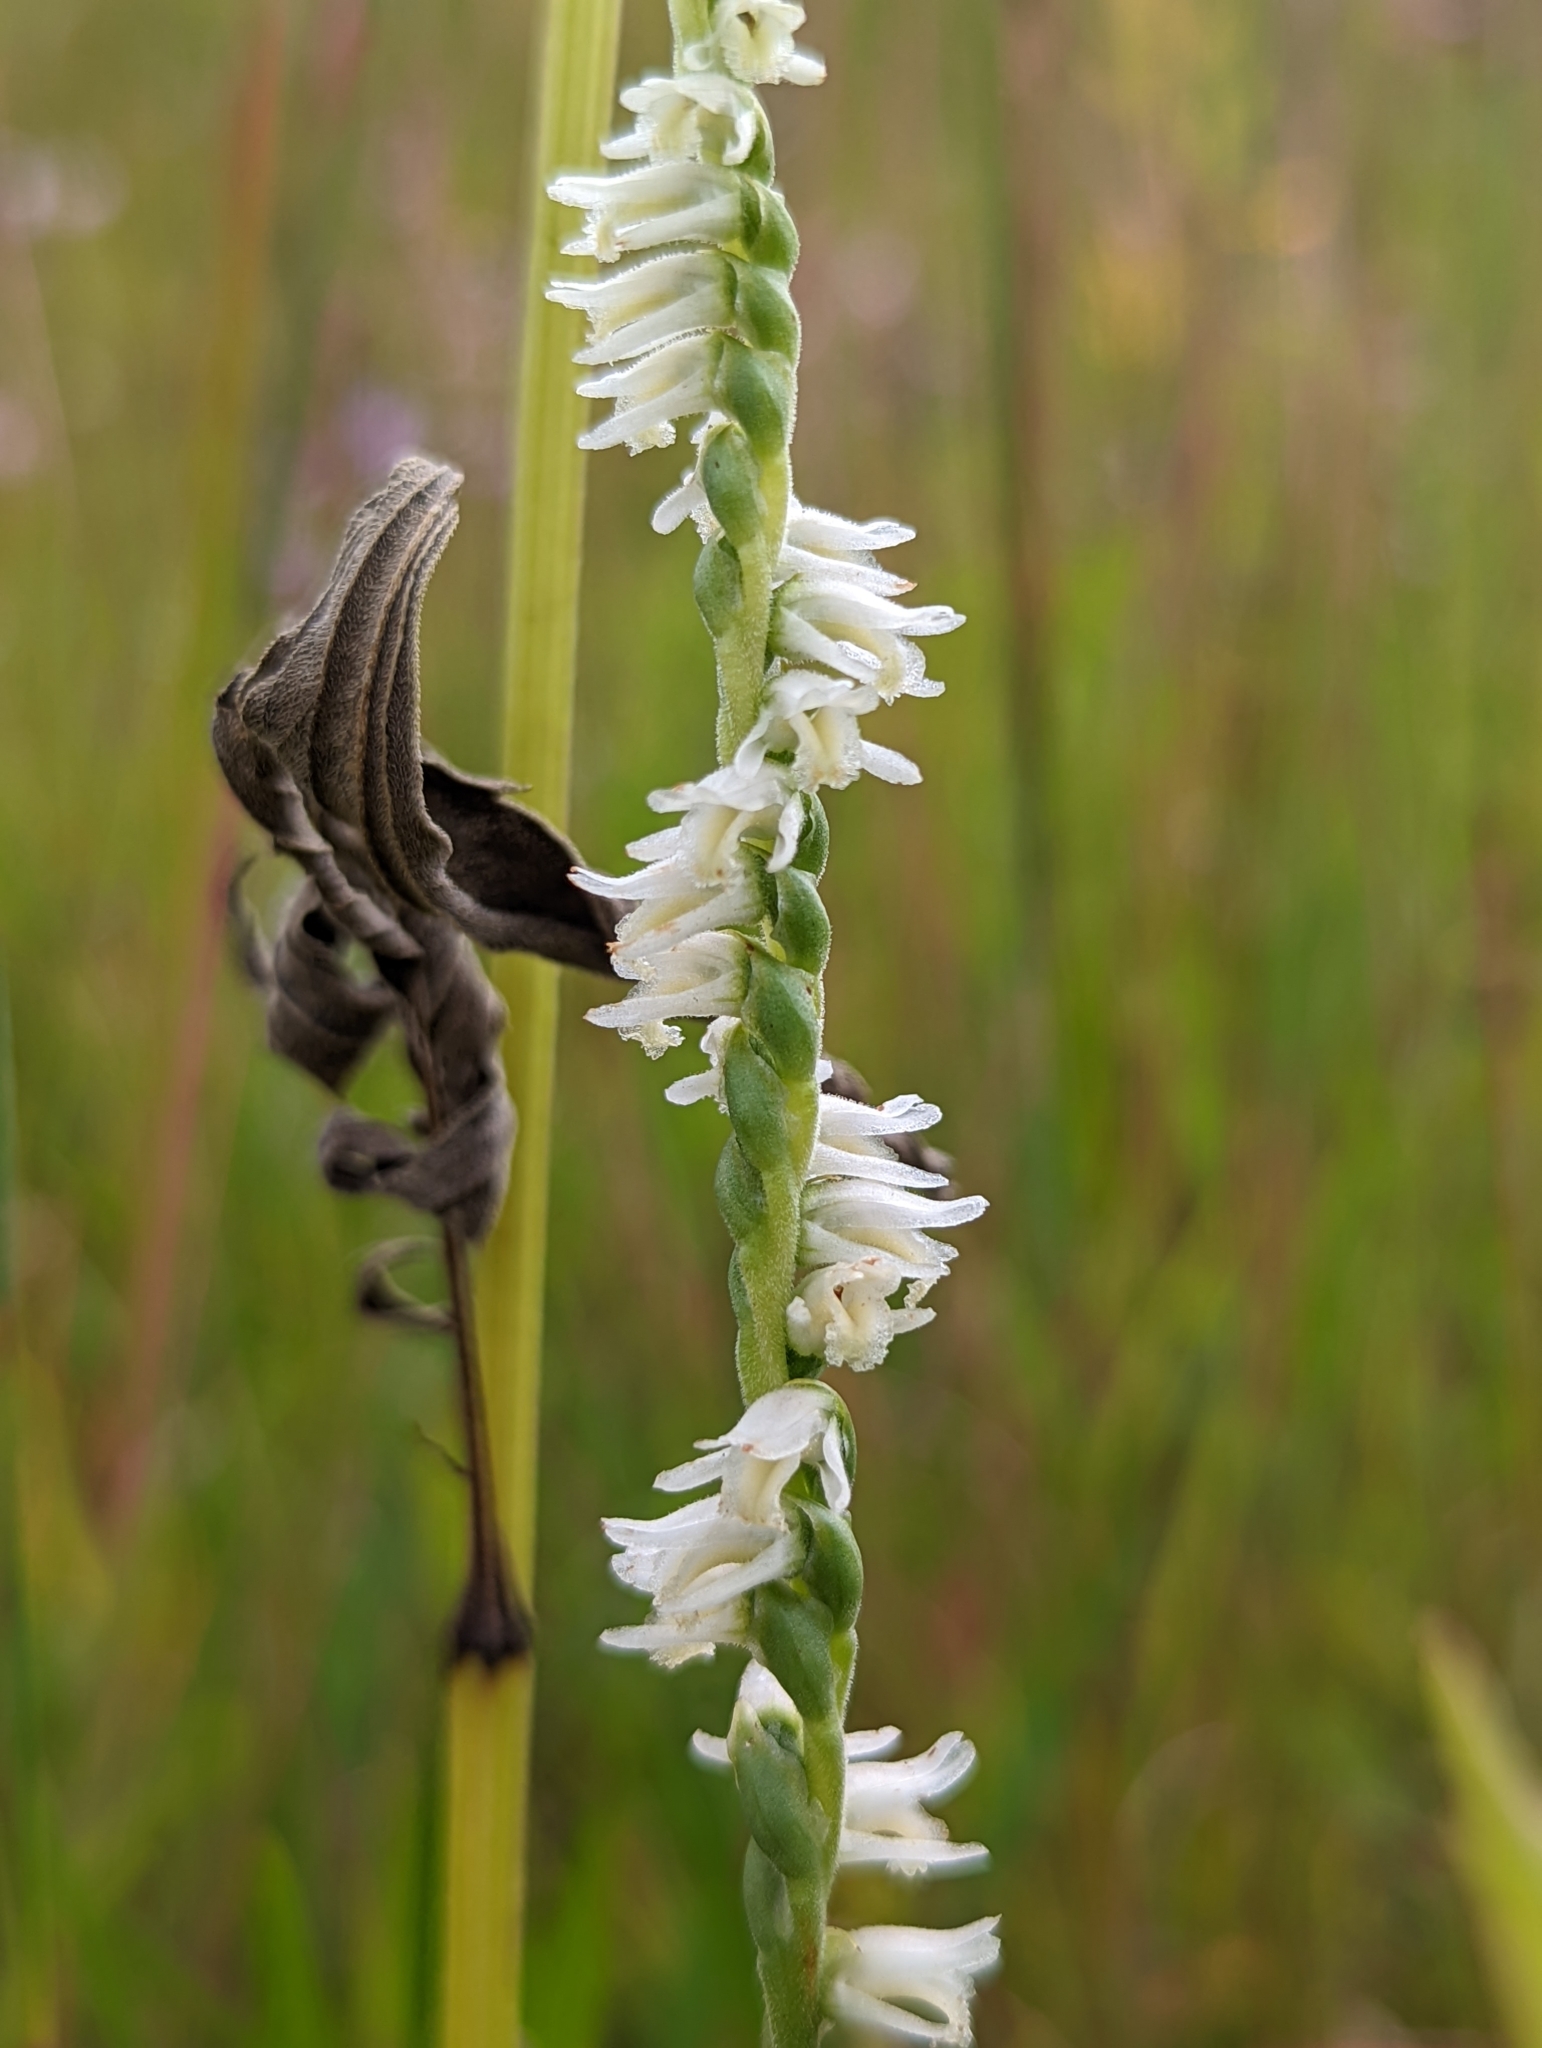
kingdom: Plantae
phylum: Tracheophyta
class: Liliopsida
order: Asparagales
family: Orchidaceae
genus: Spiranthes
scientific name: Spiranthes vernalis
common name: Spring ladies'-tresses
